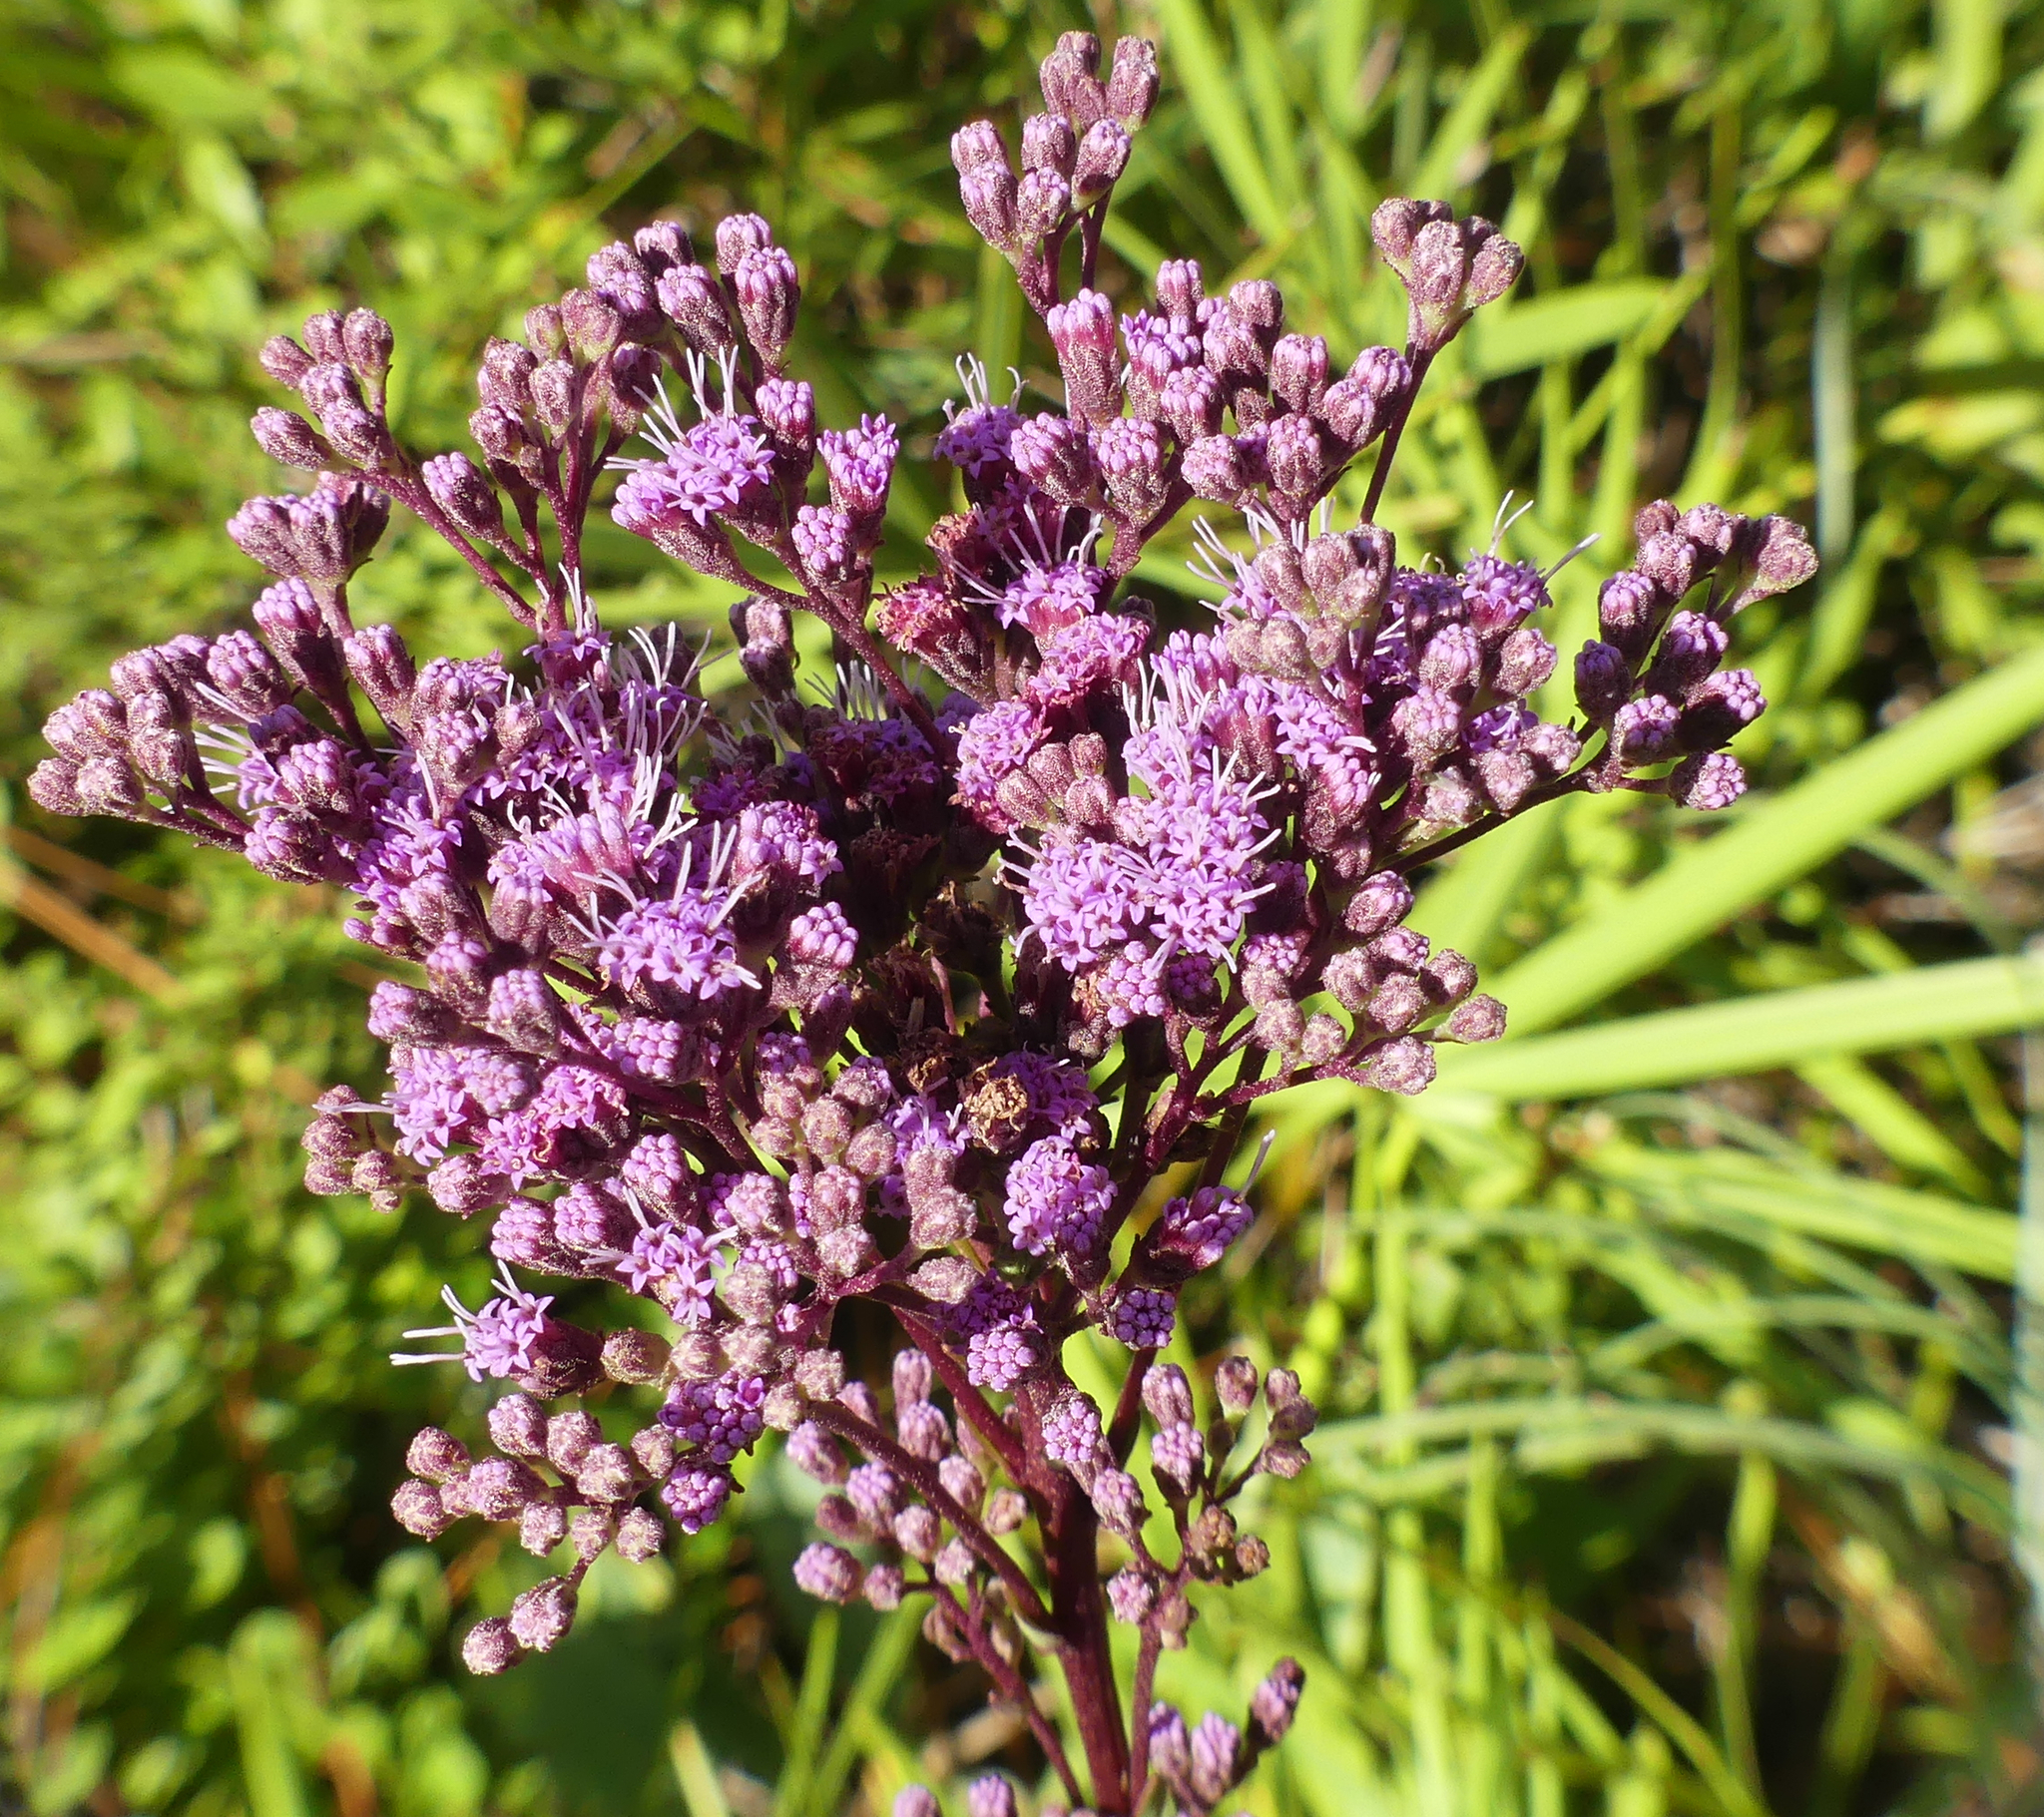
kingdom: Plantae
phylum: Tracheophyta
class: Magnoliopsida
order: Asterales
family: Asteraceae
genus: Carphephorus
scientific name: Carphephorus odoratissimus
